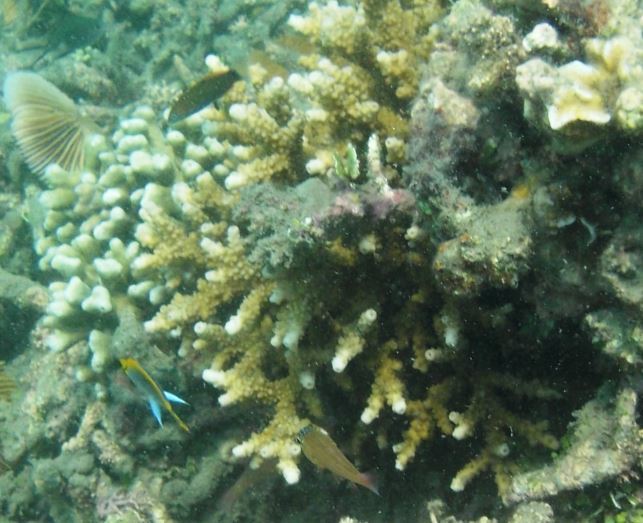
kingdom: Animalia
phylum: Cnidaria
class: Anthozoa
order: Scleractinia
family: Acroporidae
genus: Isopora
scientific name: Isopora brueggemanni
